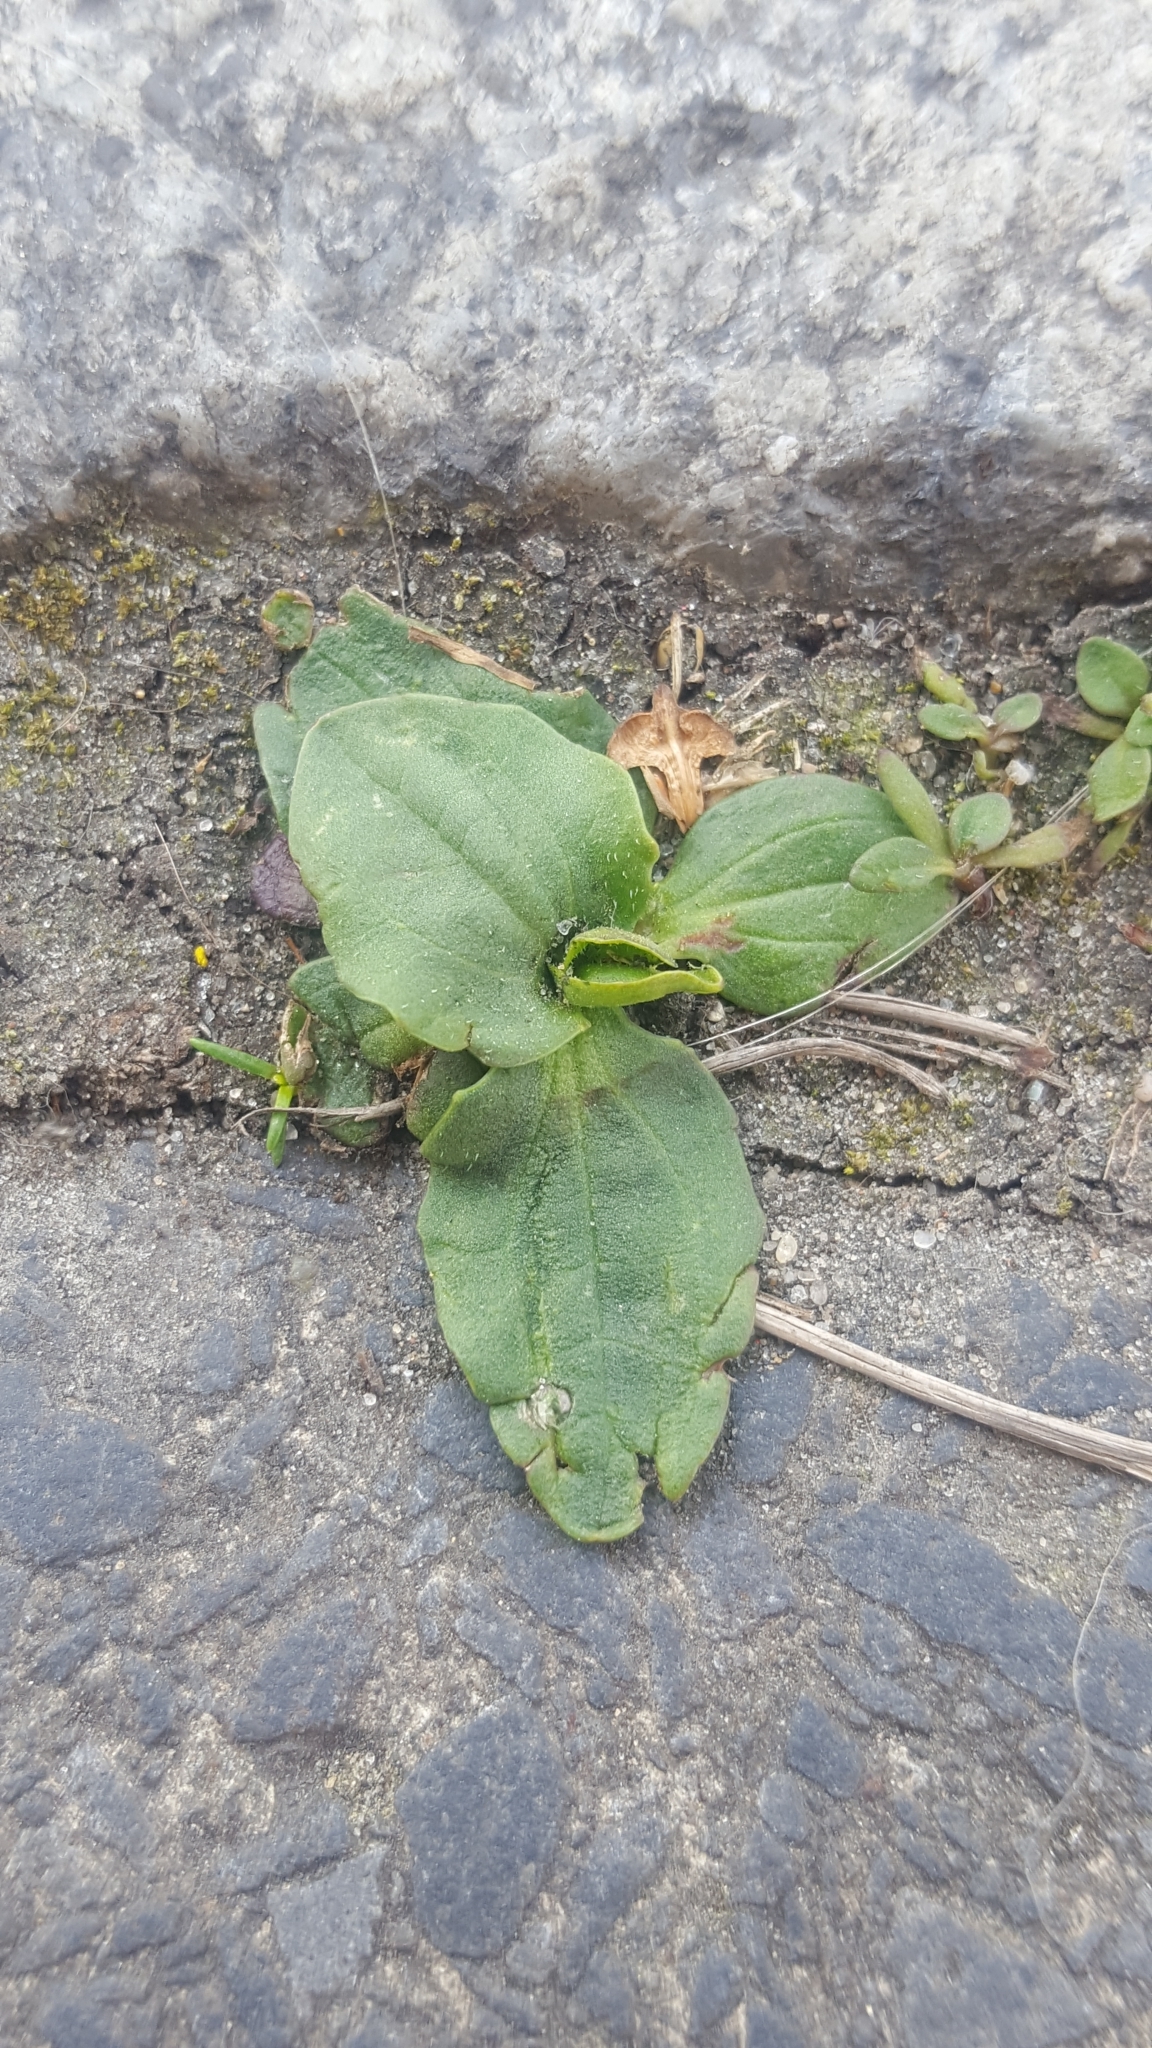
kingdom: Plantae
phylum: Tracheophyta
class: Magnoliopsida
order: Lamiales
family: Plantaginaceae
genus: Plantago
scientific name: Plantago major
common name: Common plantain
